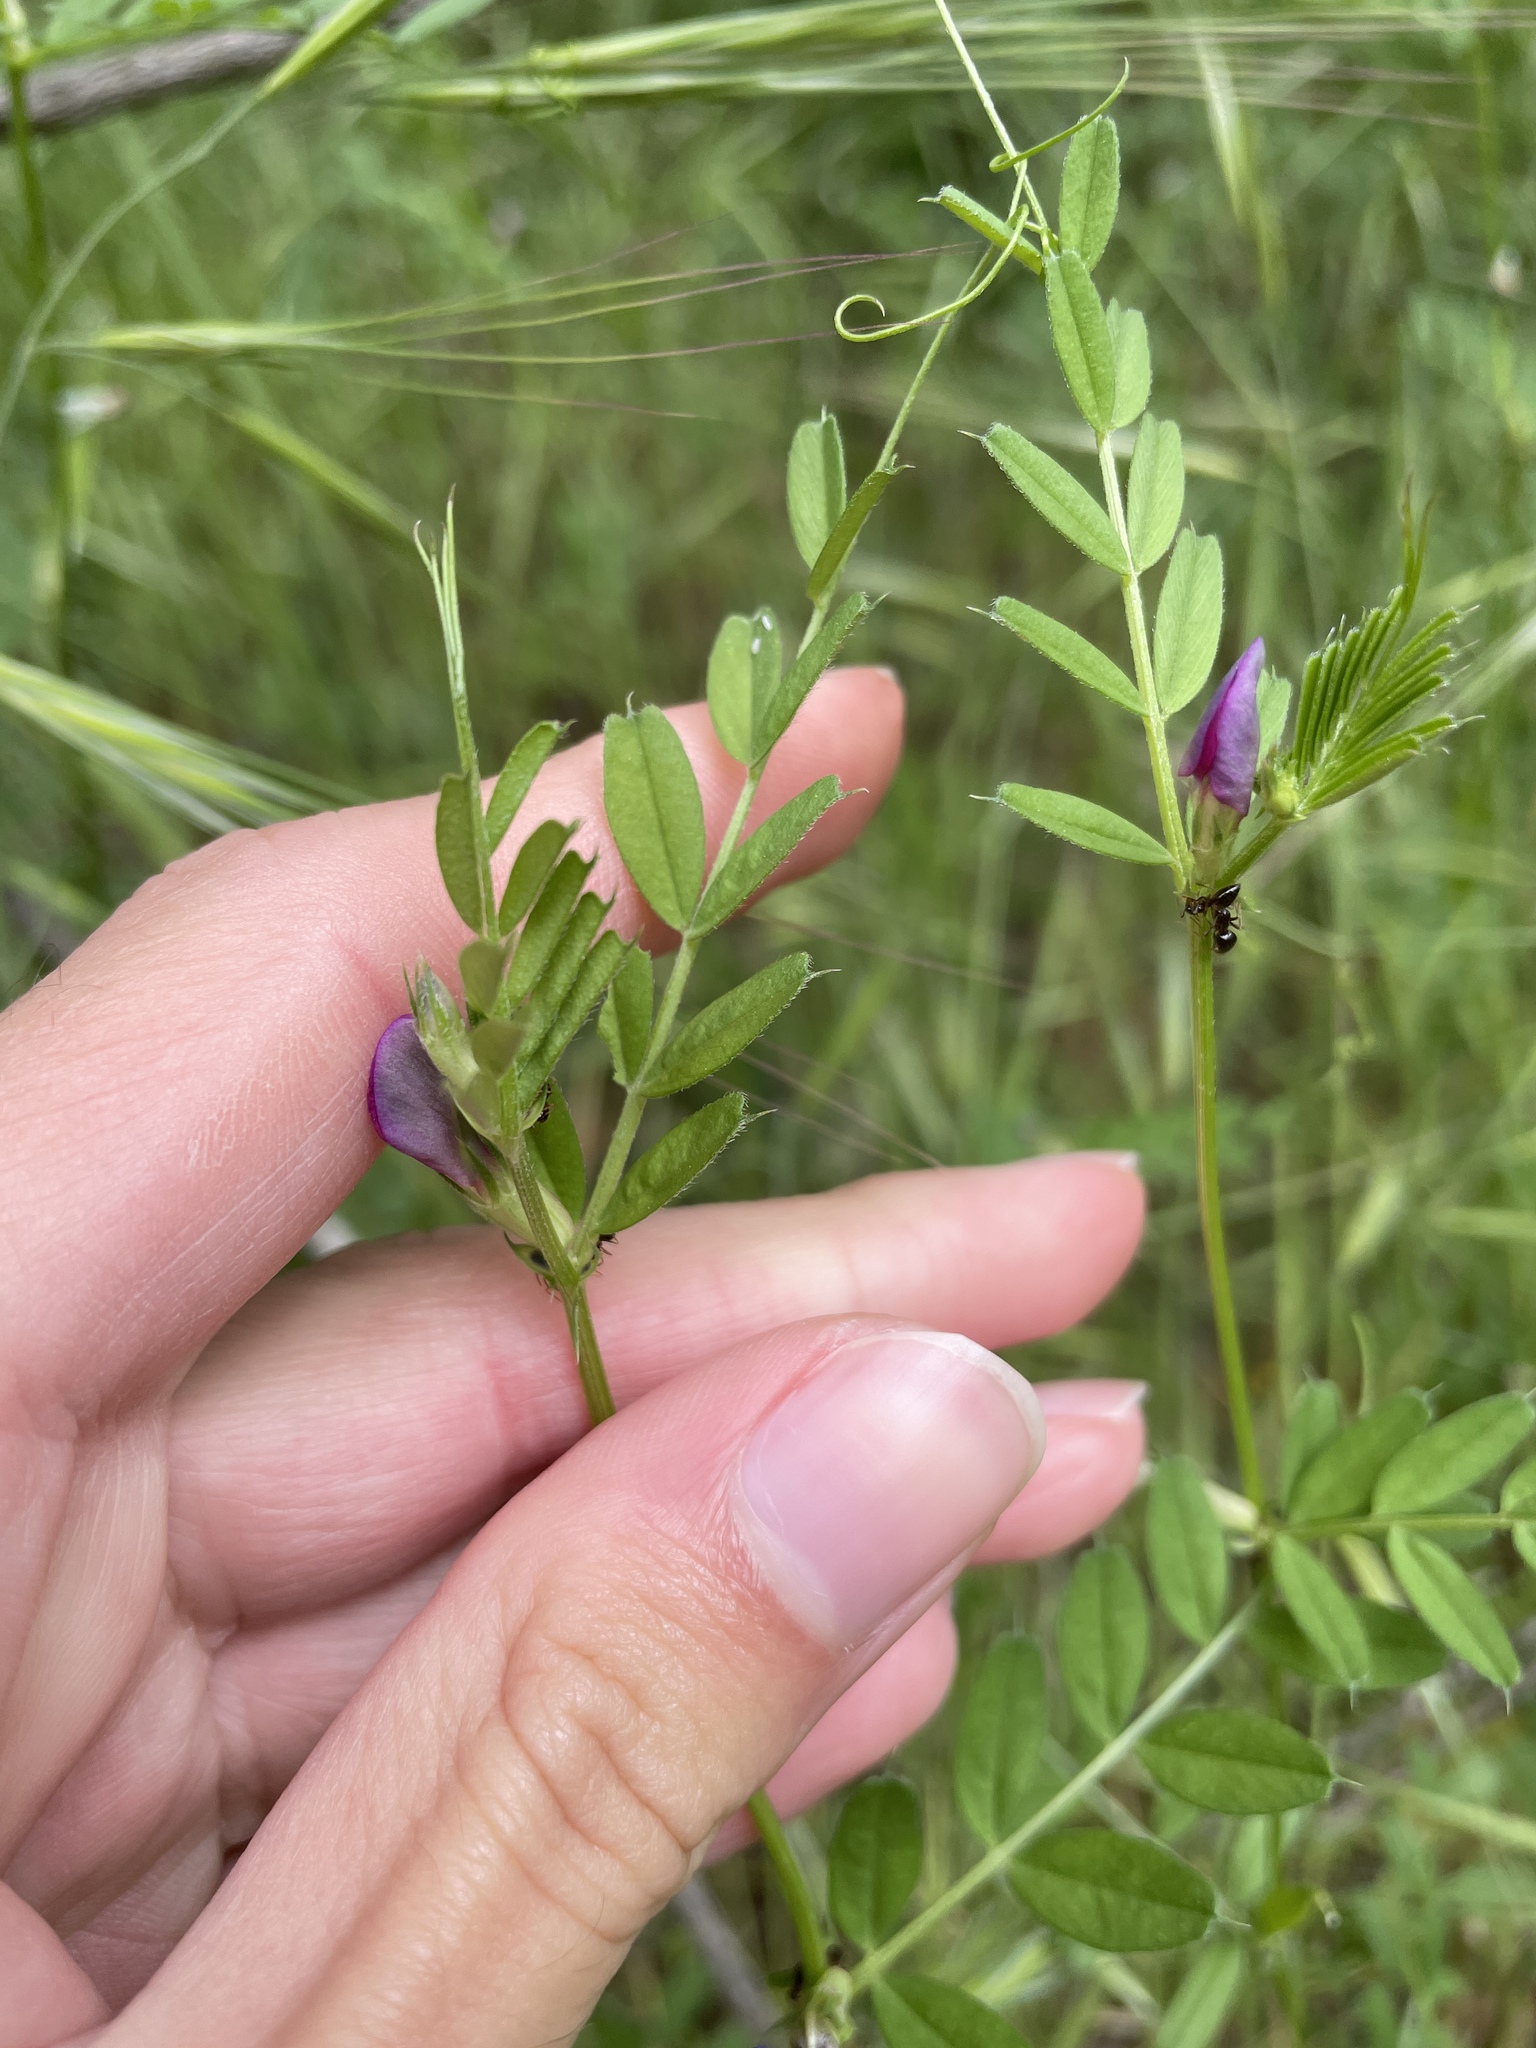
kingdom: Plantae
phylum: Tracheophyta
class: Magnoliopsida
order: Fabales
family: Fabaceae
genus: Vicia
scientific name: Vicia sativa
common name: Garden vetch
